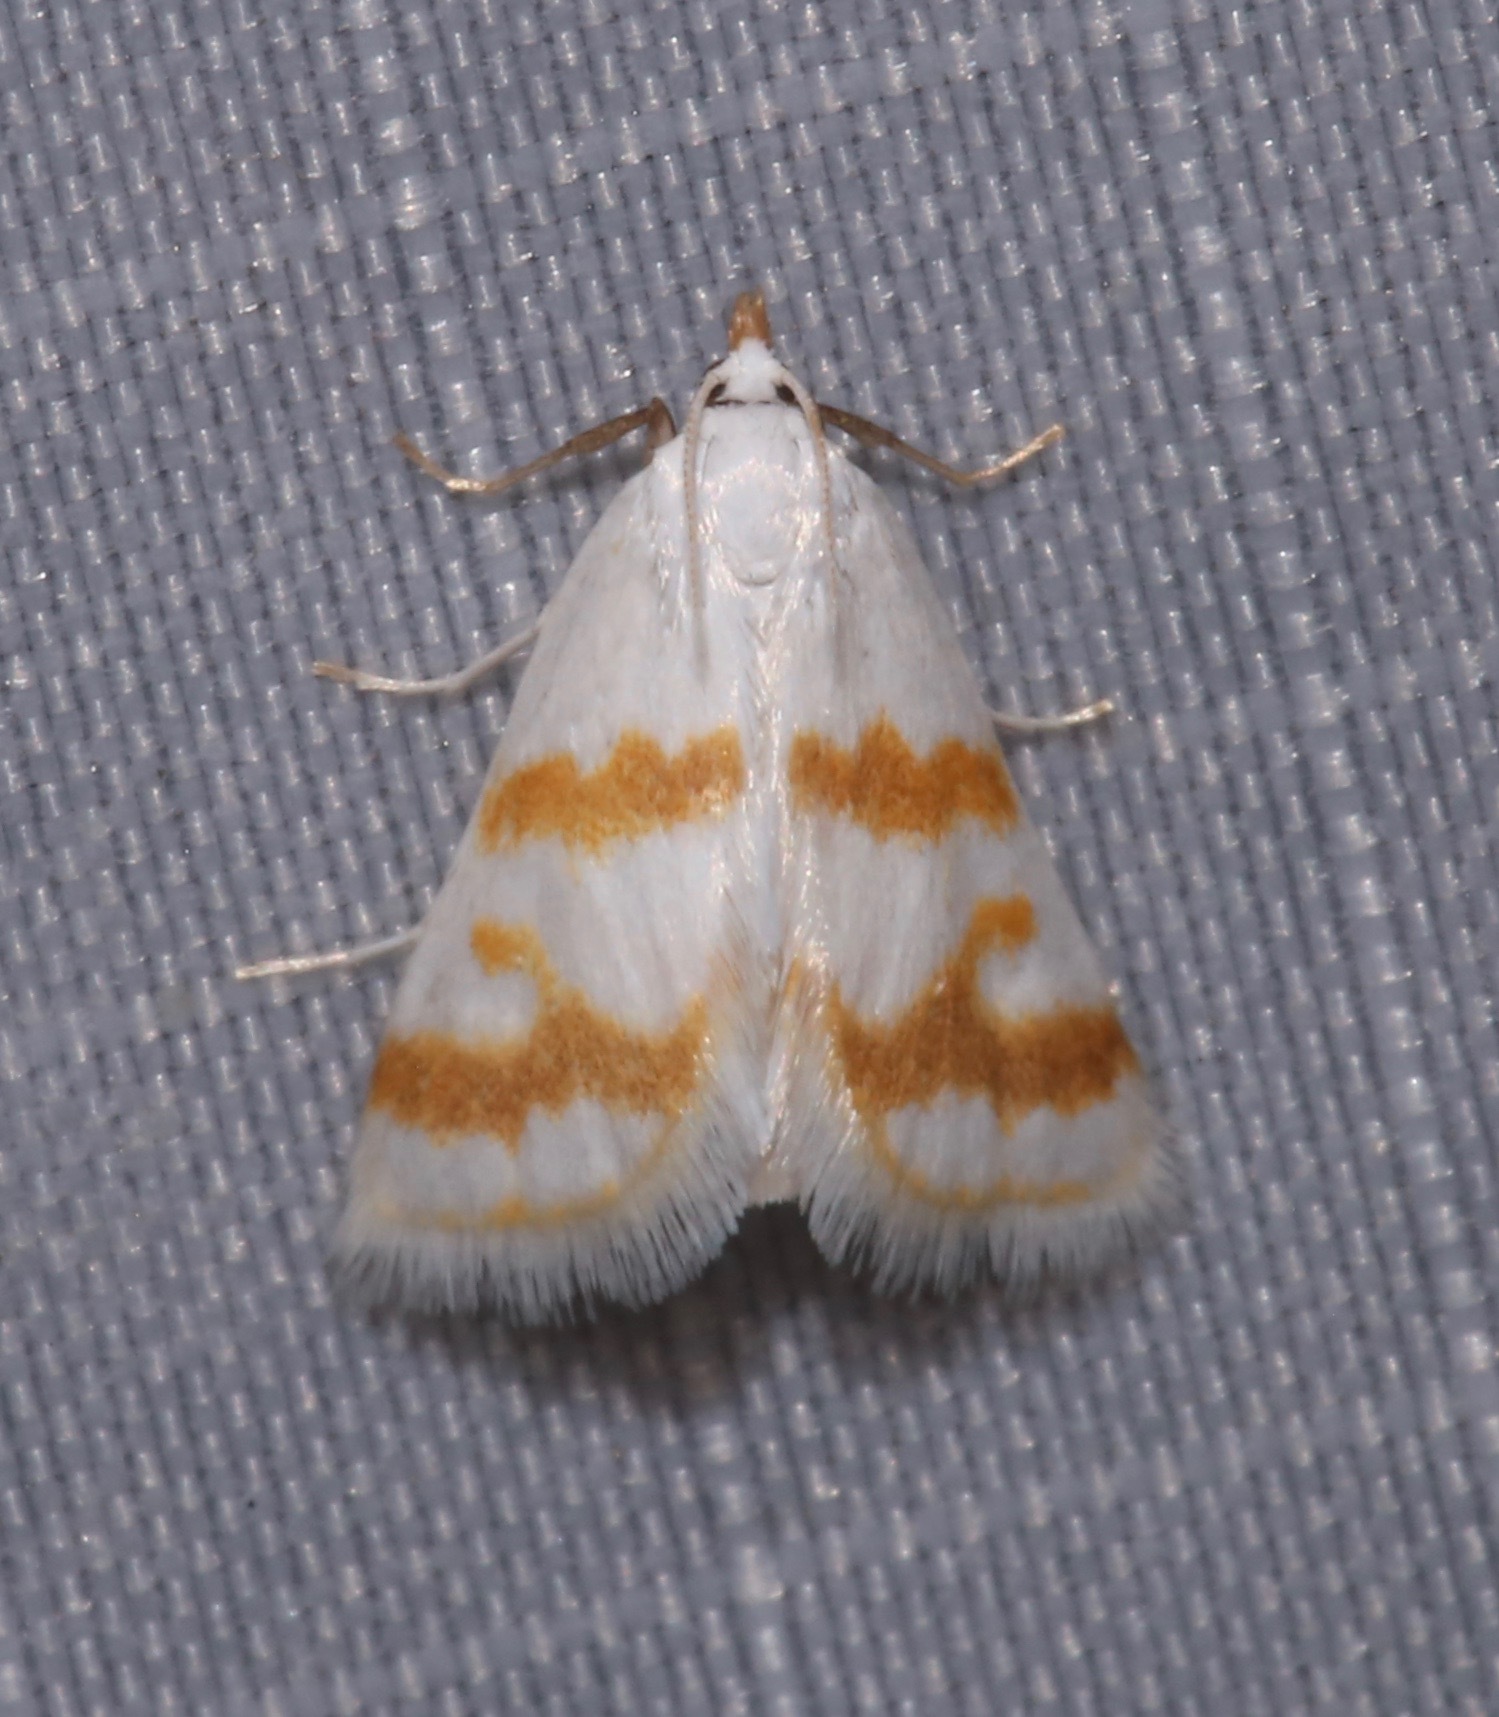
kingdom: Animalia
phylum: Arthropoda
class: Insecta
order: Lepidoptera
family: Crambidae
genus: Patissa
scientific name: Patissa xantholeucalis
